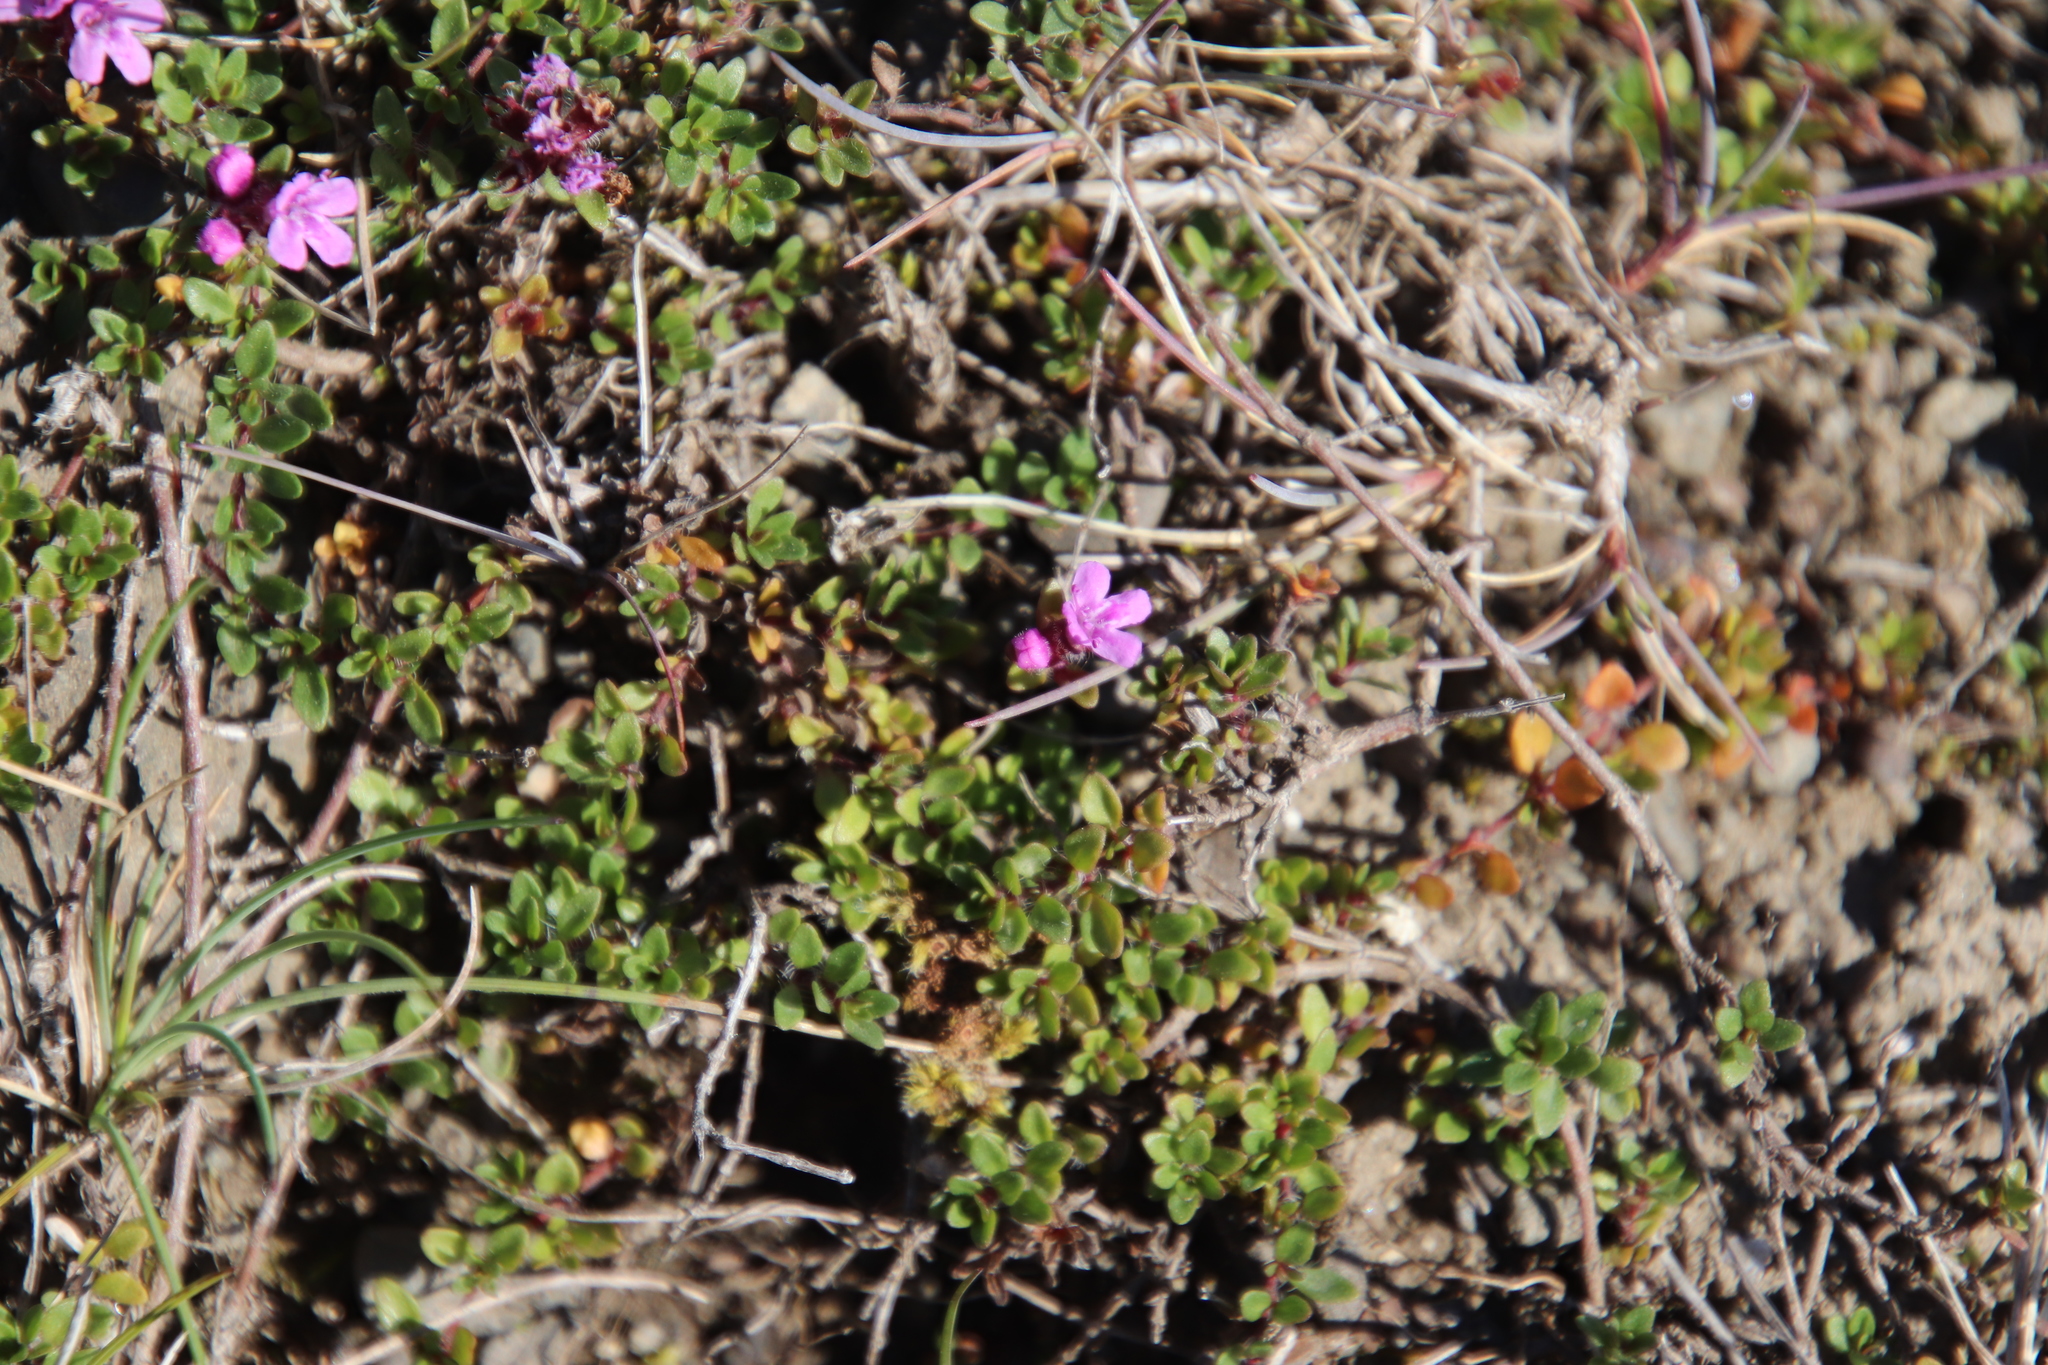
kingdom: Plantae
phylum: Tracheophyta
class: Magnoliopsida
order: Lamiales
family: Lamiaceae
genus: Thymus
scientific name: Thymus praecox
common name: Wild thyme
